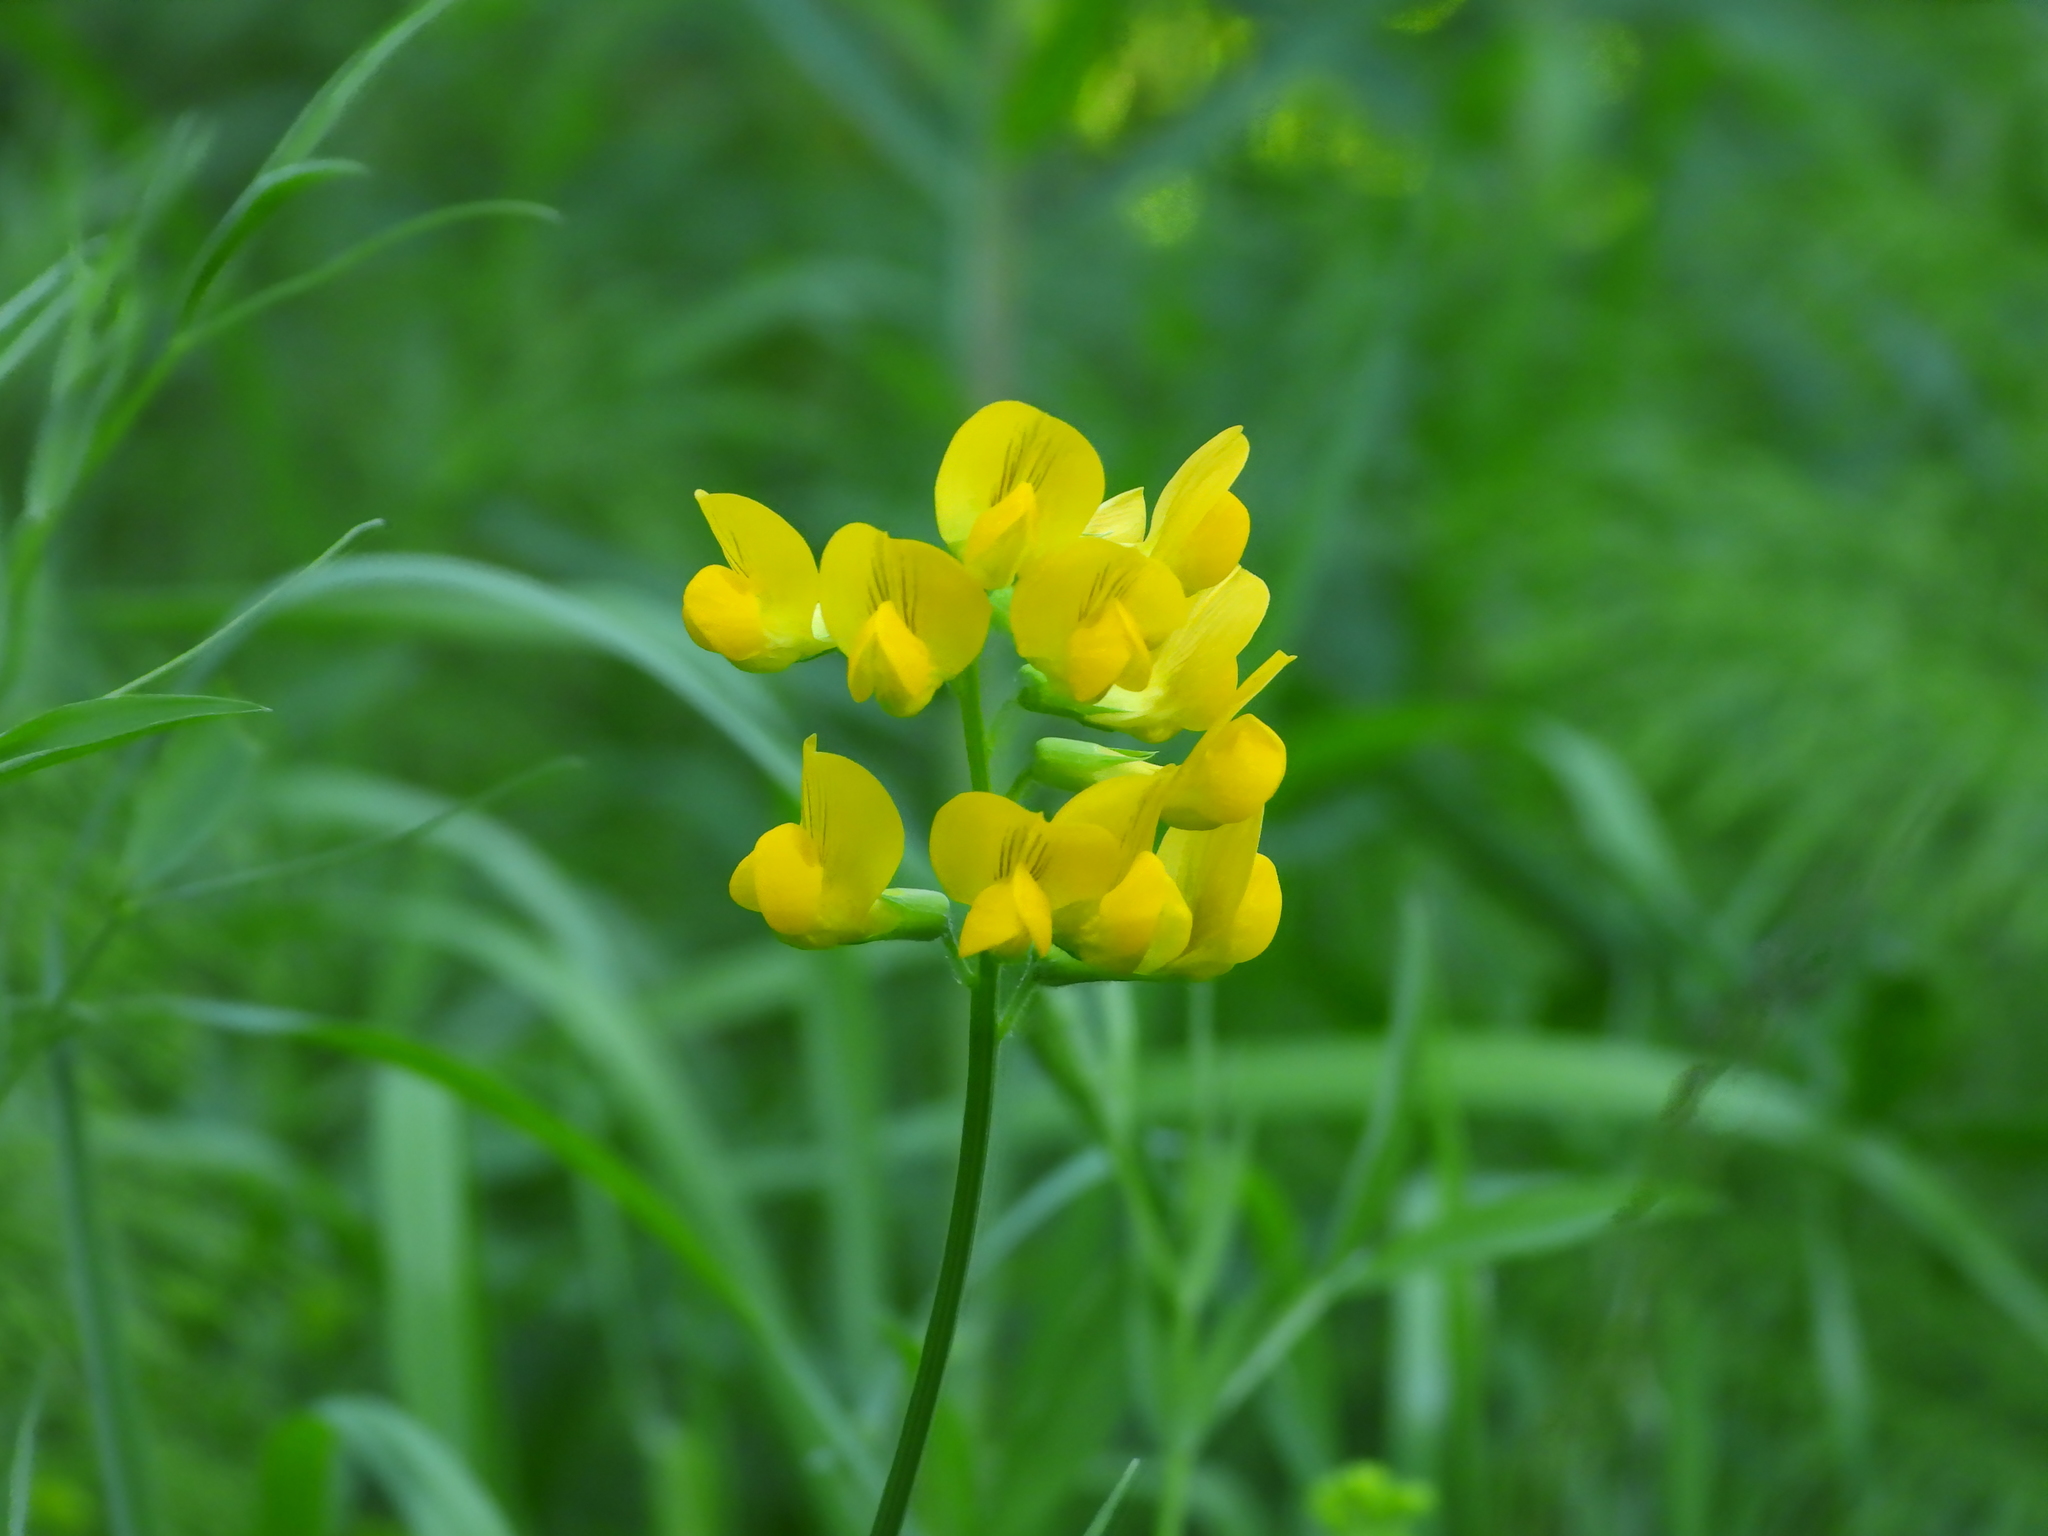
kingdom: Plantae
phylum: Tracheophyta
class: Magnoliopsida
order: Fabales
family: Fabaceae
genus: Lathyrus
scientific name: Lathyrus pratensis
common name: Meadow vetchling
